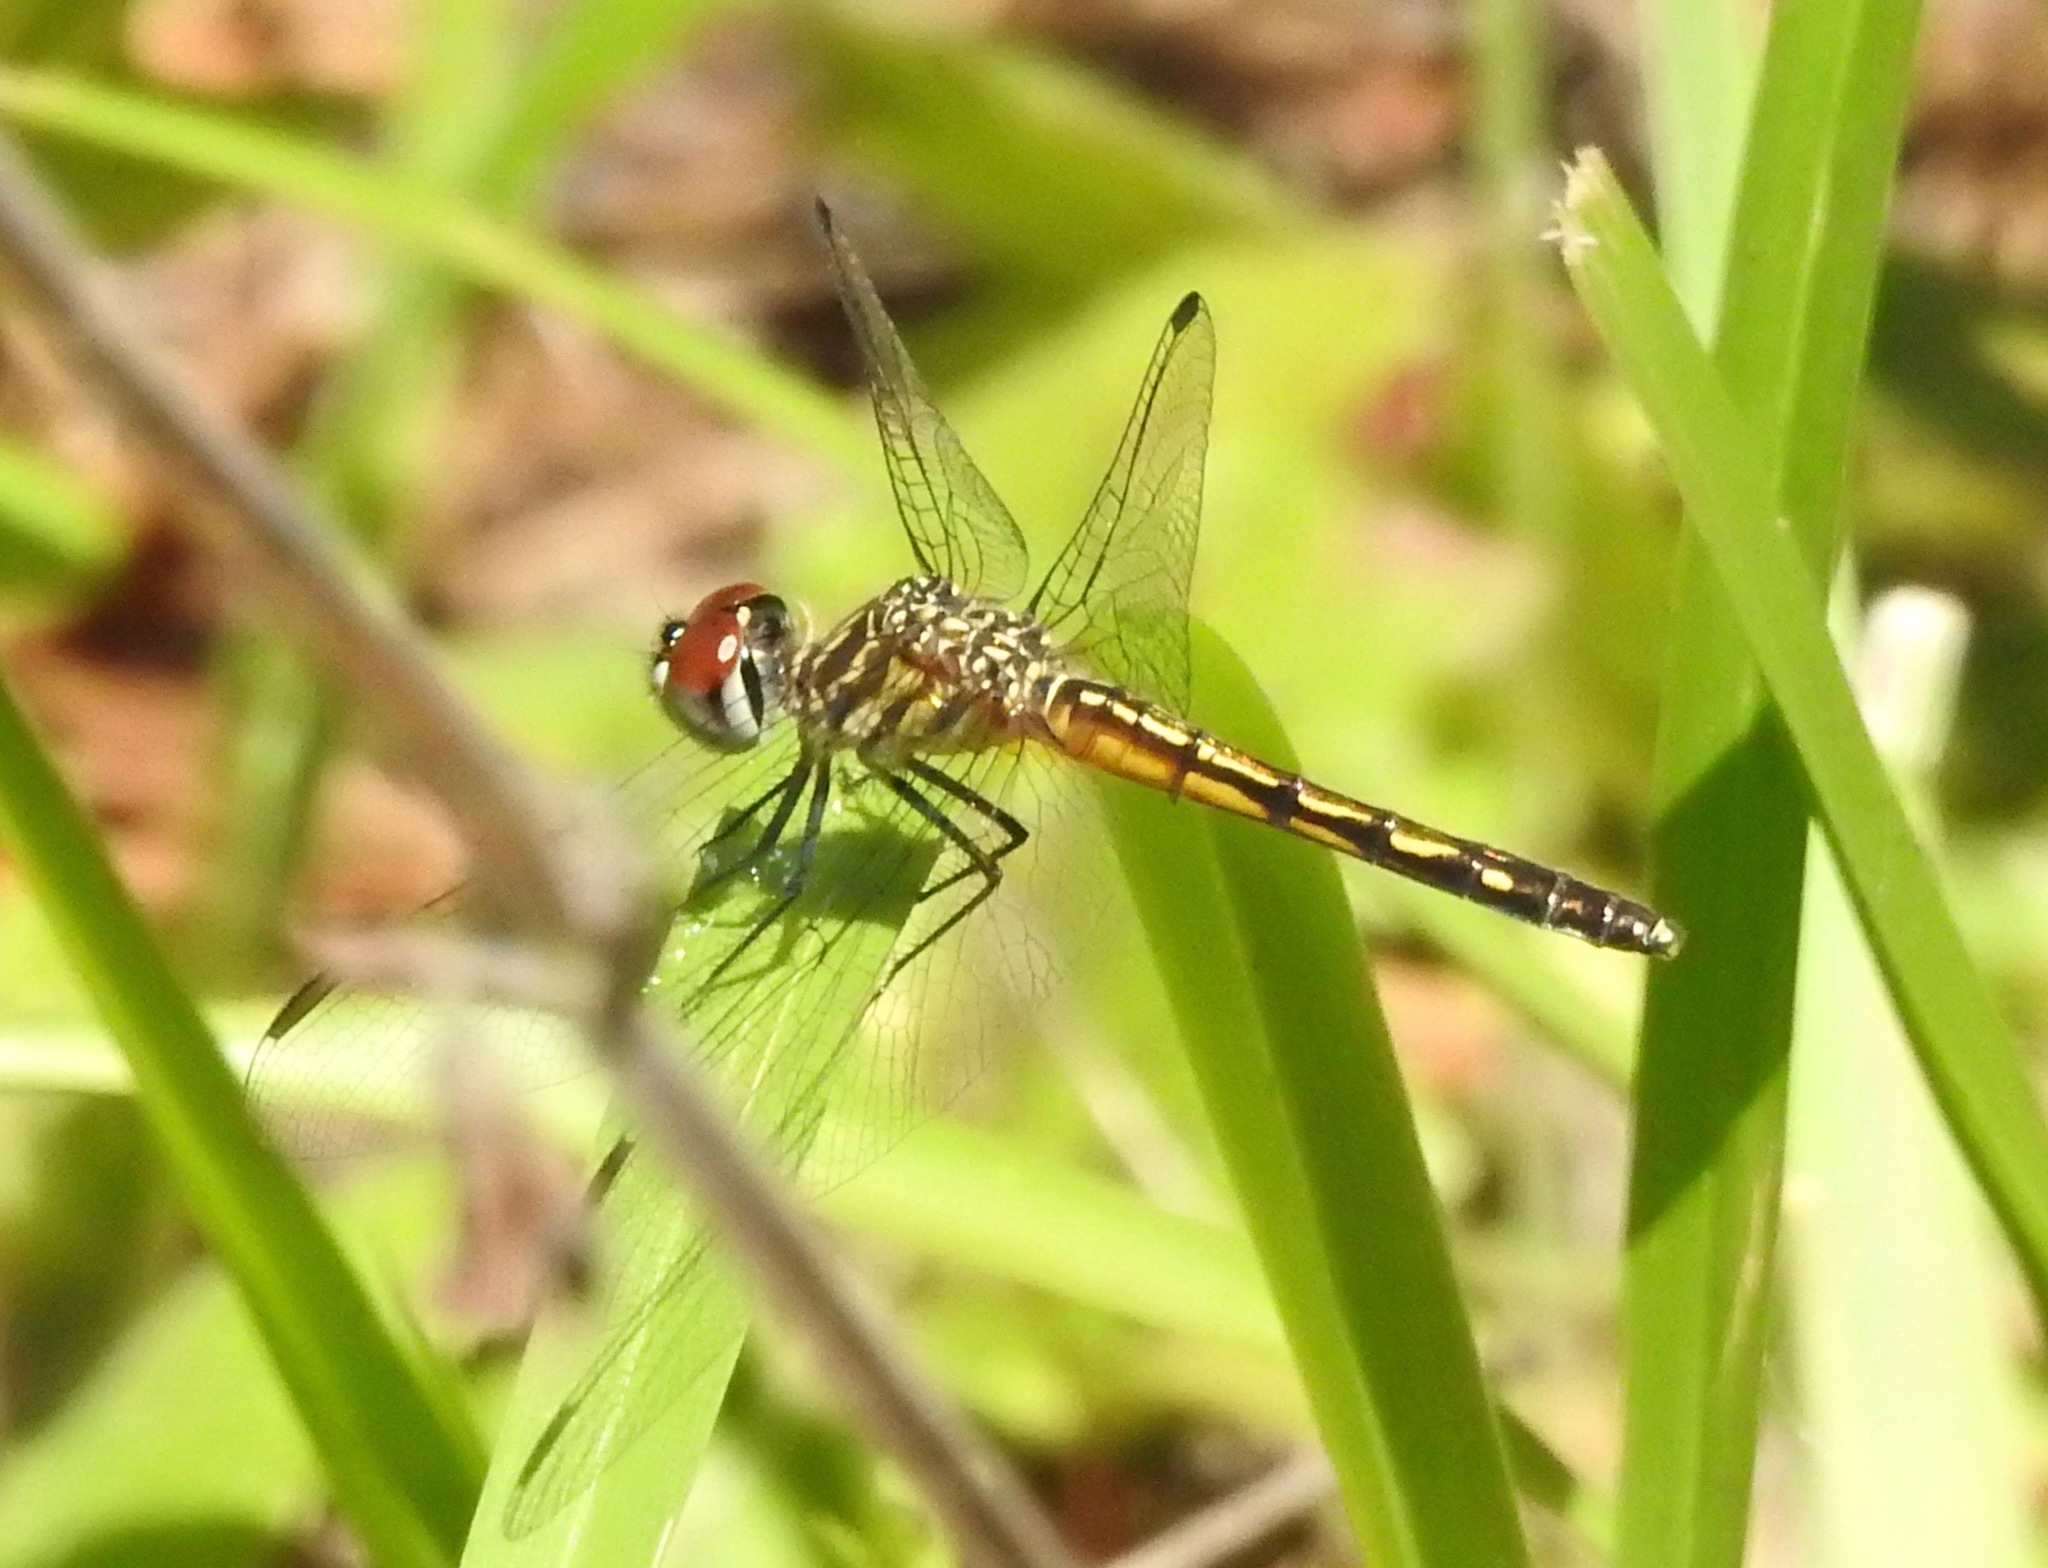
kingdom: Animalia
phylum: Arthropoda
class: Insecta
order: Odonata
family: Libellulidae
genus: Pachydiplax
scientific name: Pachydiplax longipennis
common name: Blue dasher
